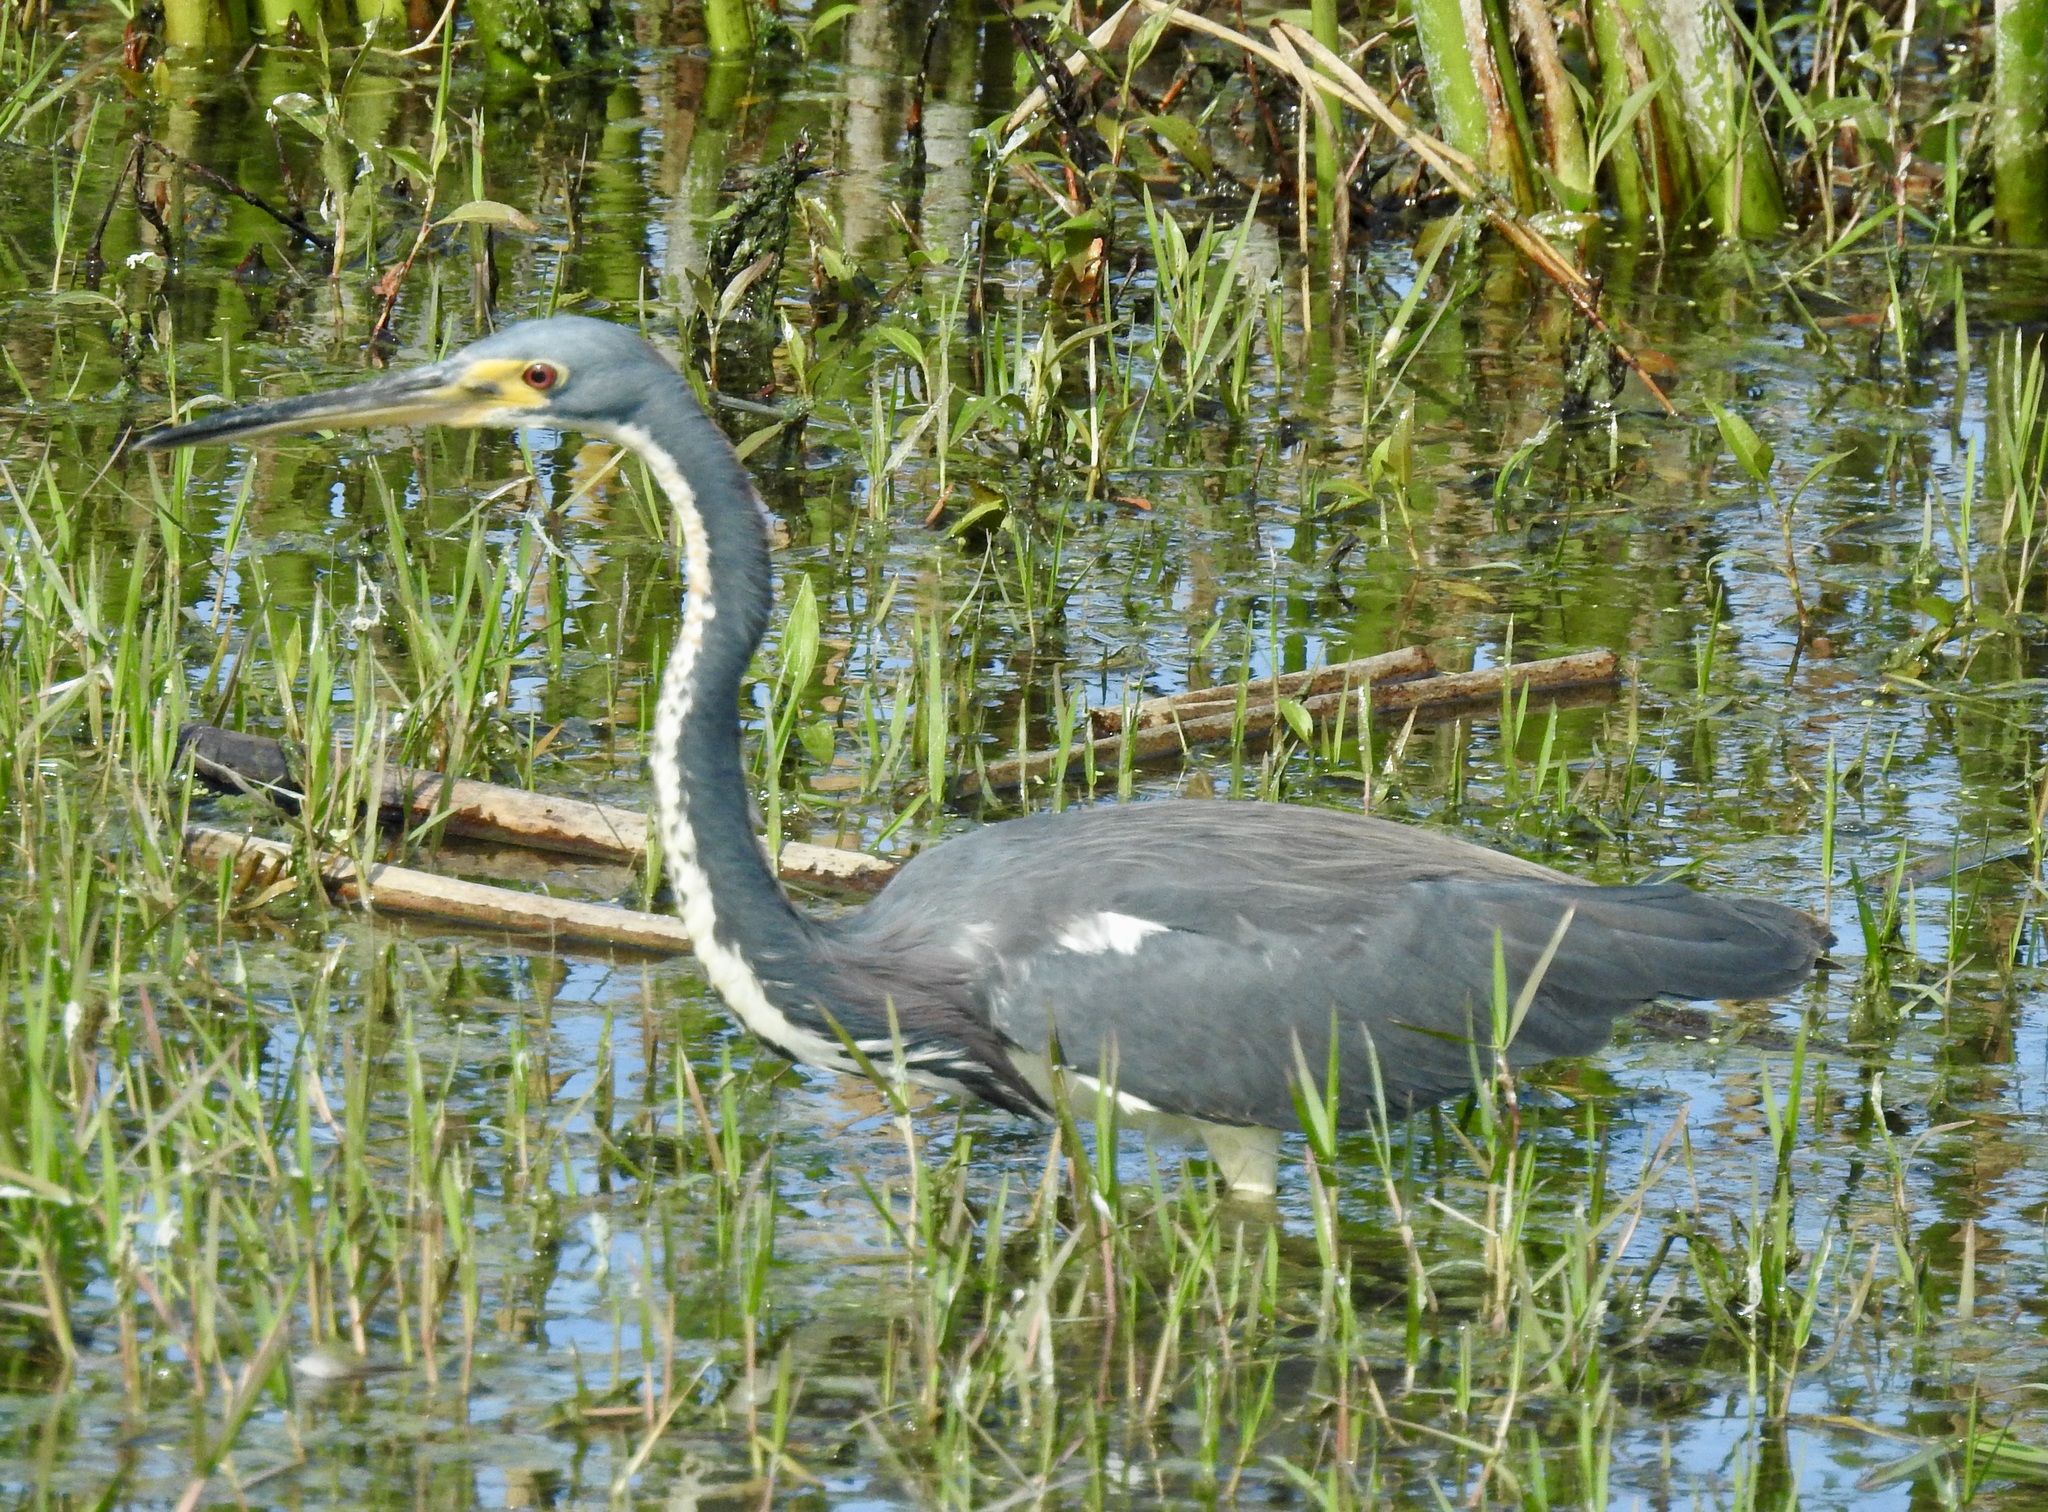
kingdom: Animalia
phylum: Chordata
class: Aves
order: Pelecaniformes
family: Ardeidae
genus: Egretta
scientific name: Egretta tricolor
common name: Tricolored heron
